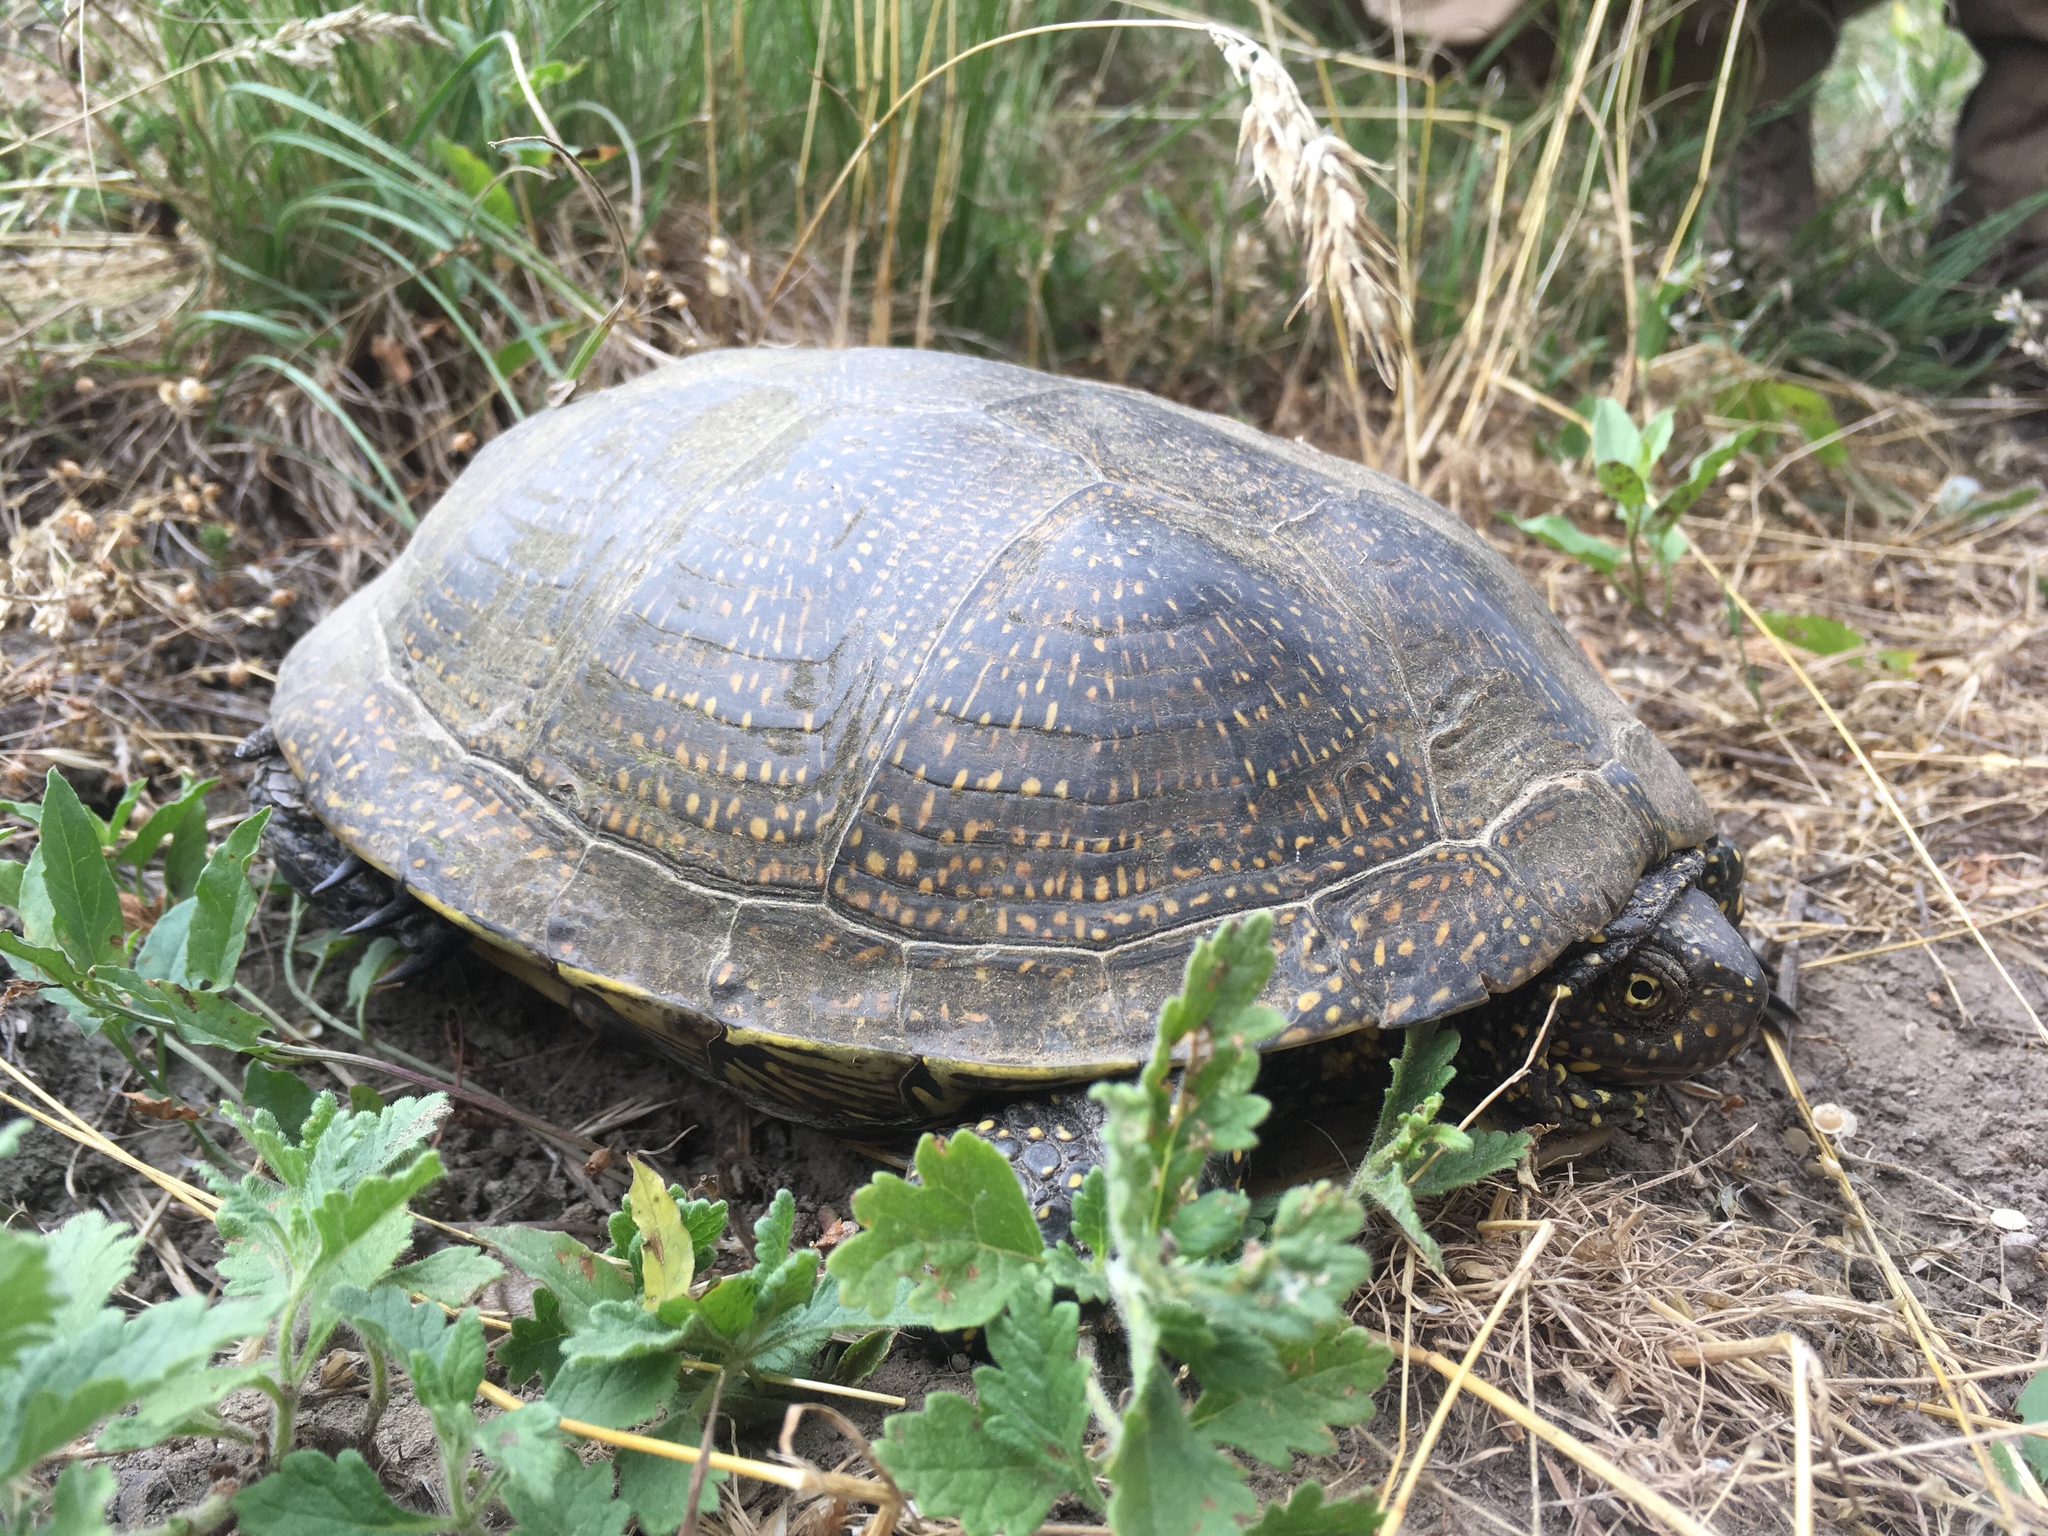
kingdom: Animalia
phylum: Chordata
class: Testudines
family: Emydidae
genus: Emys
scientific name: Emys orbicularis
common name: European pond turtle
